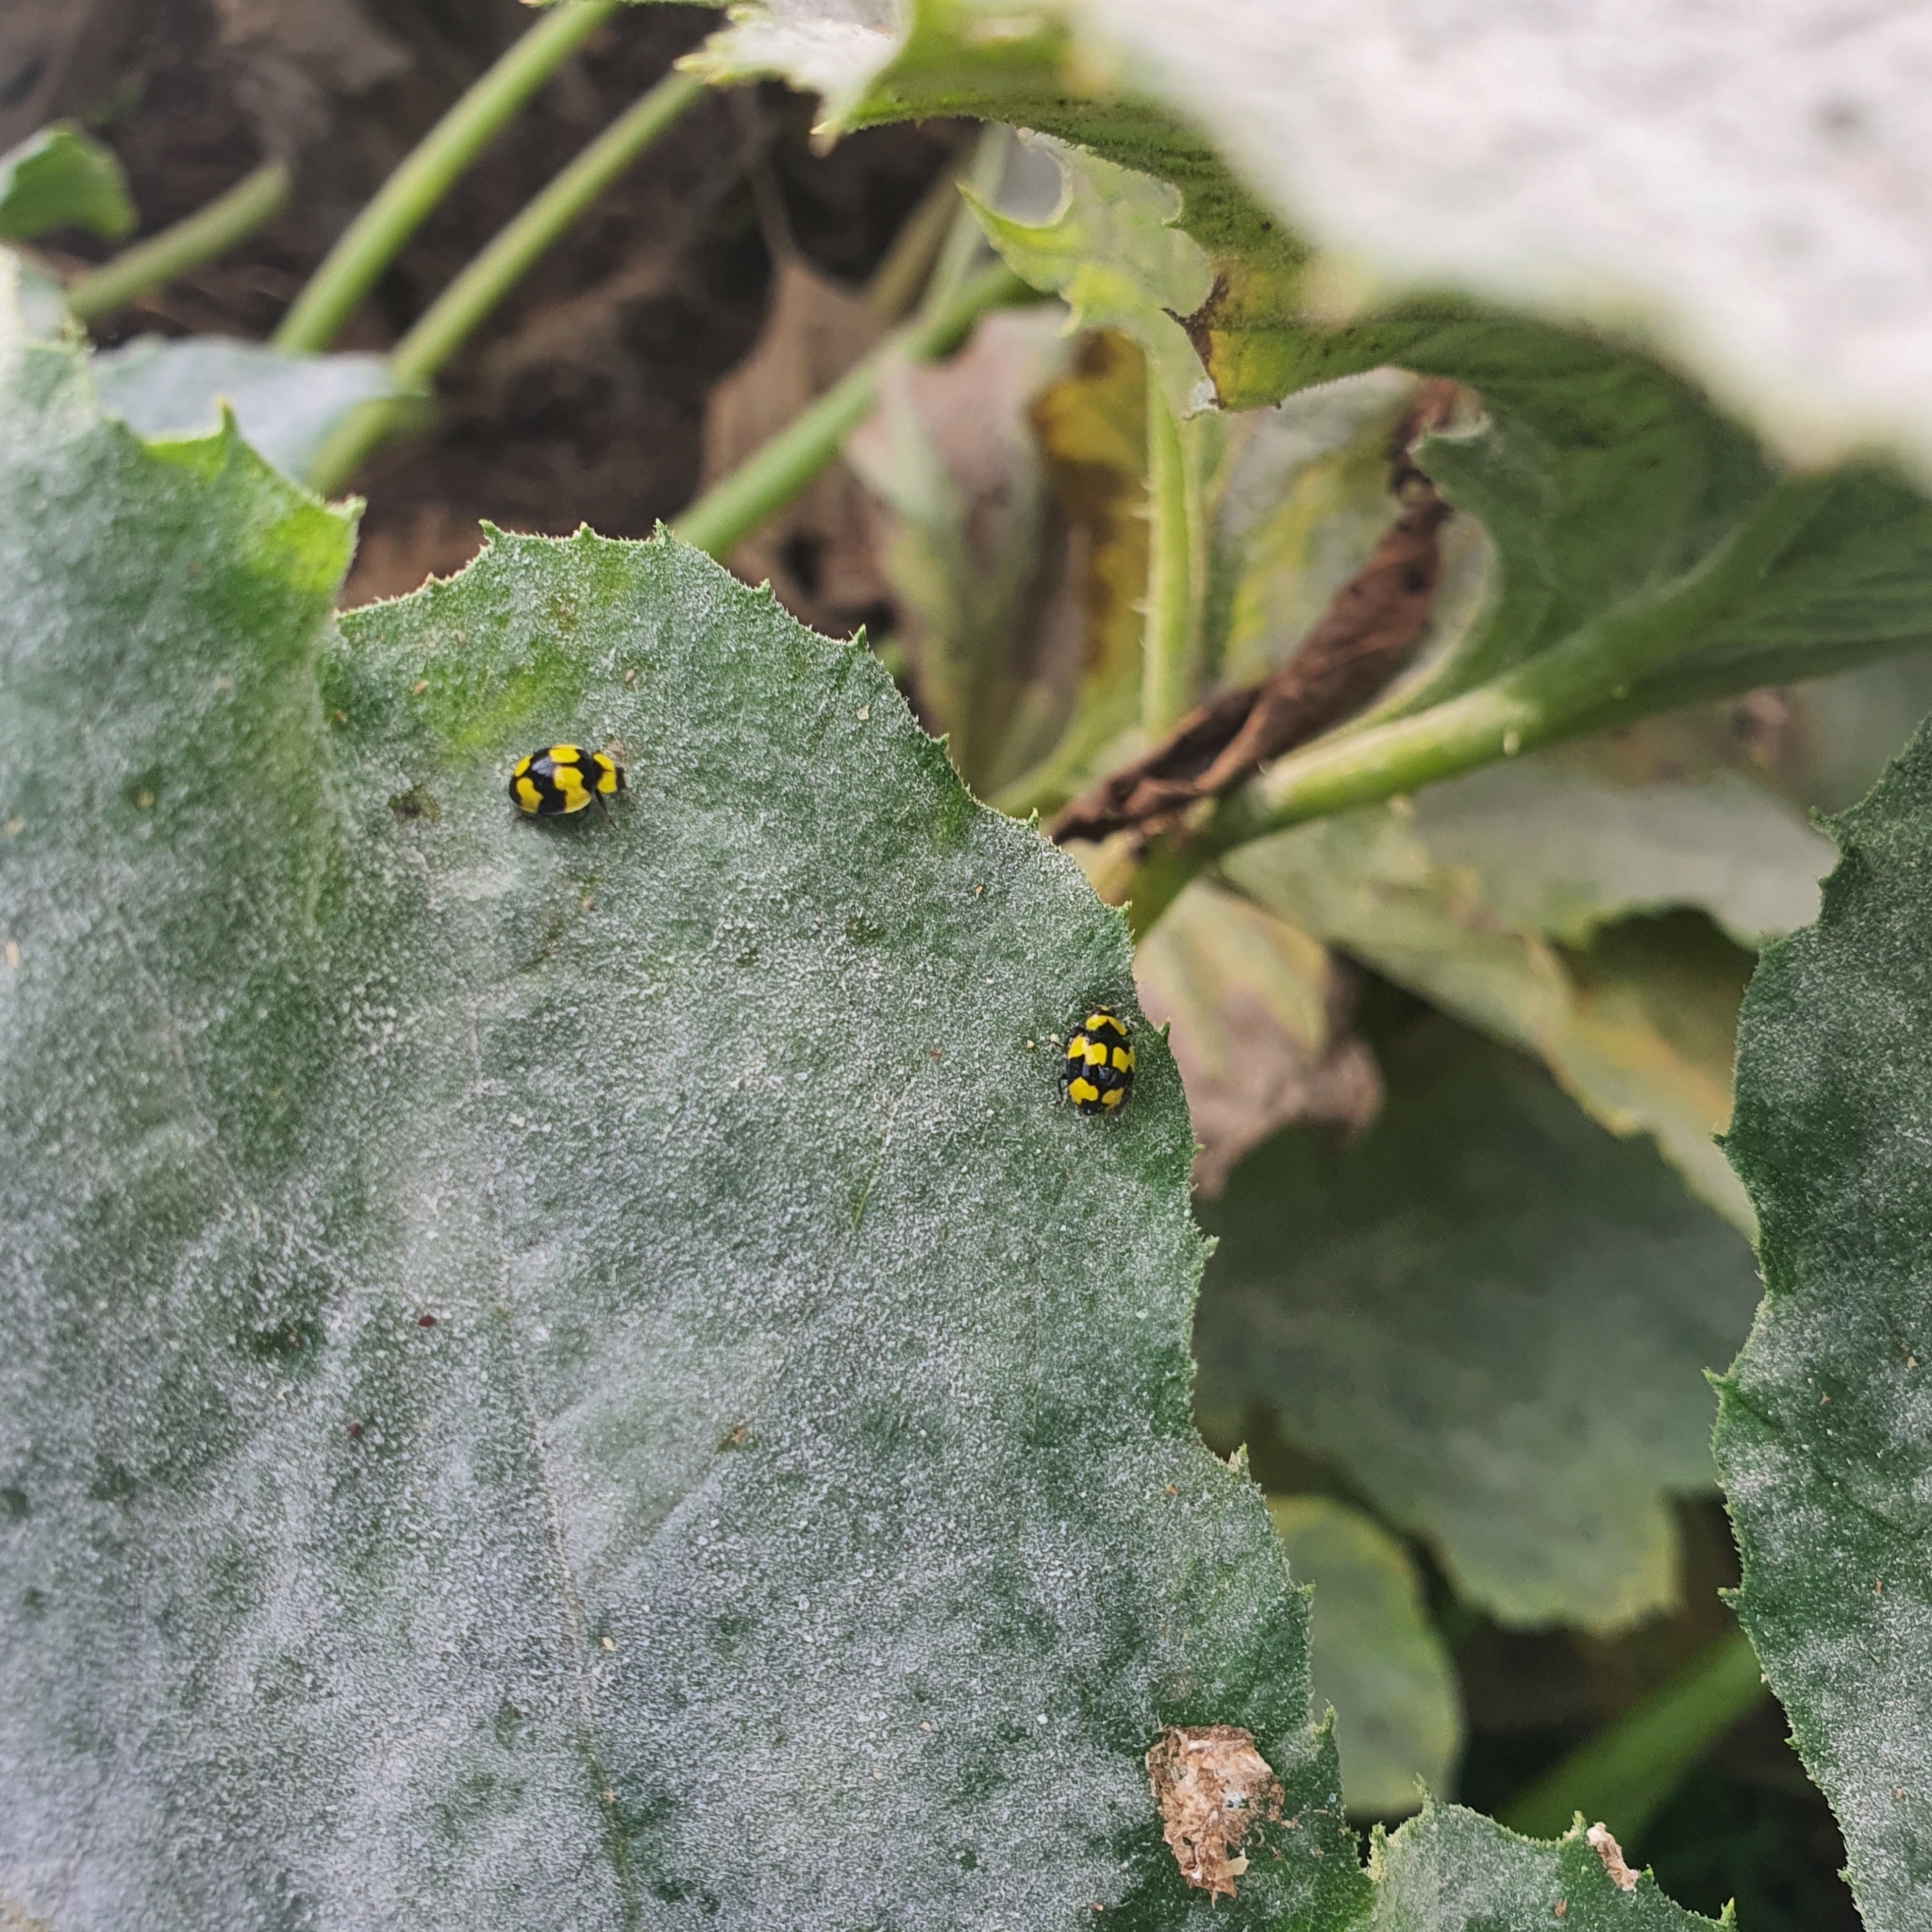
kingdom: Animalia
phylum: Arthropoda
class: Insecta
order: Coleoptera
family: Coccinellidae
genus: Illeis
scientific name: Illeis galbula
